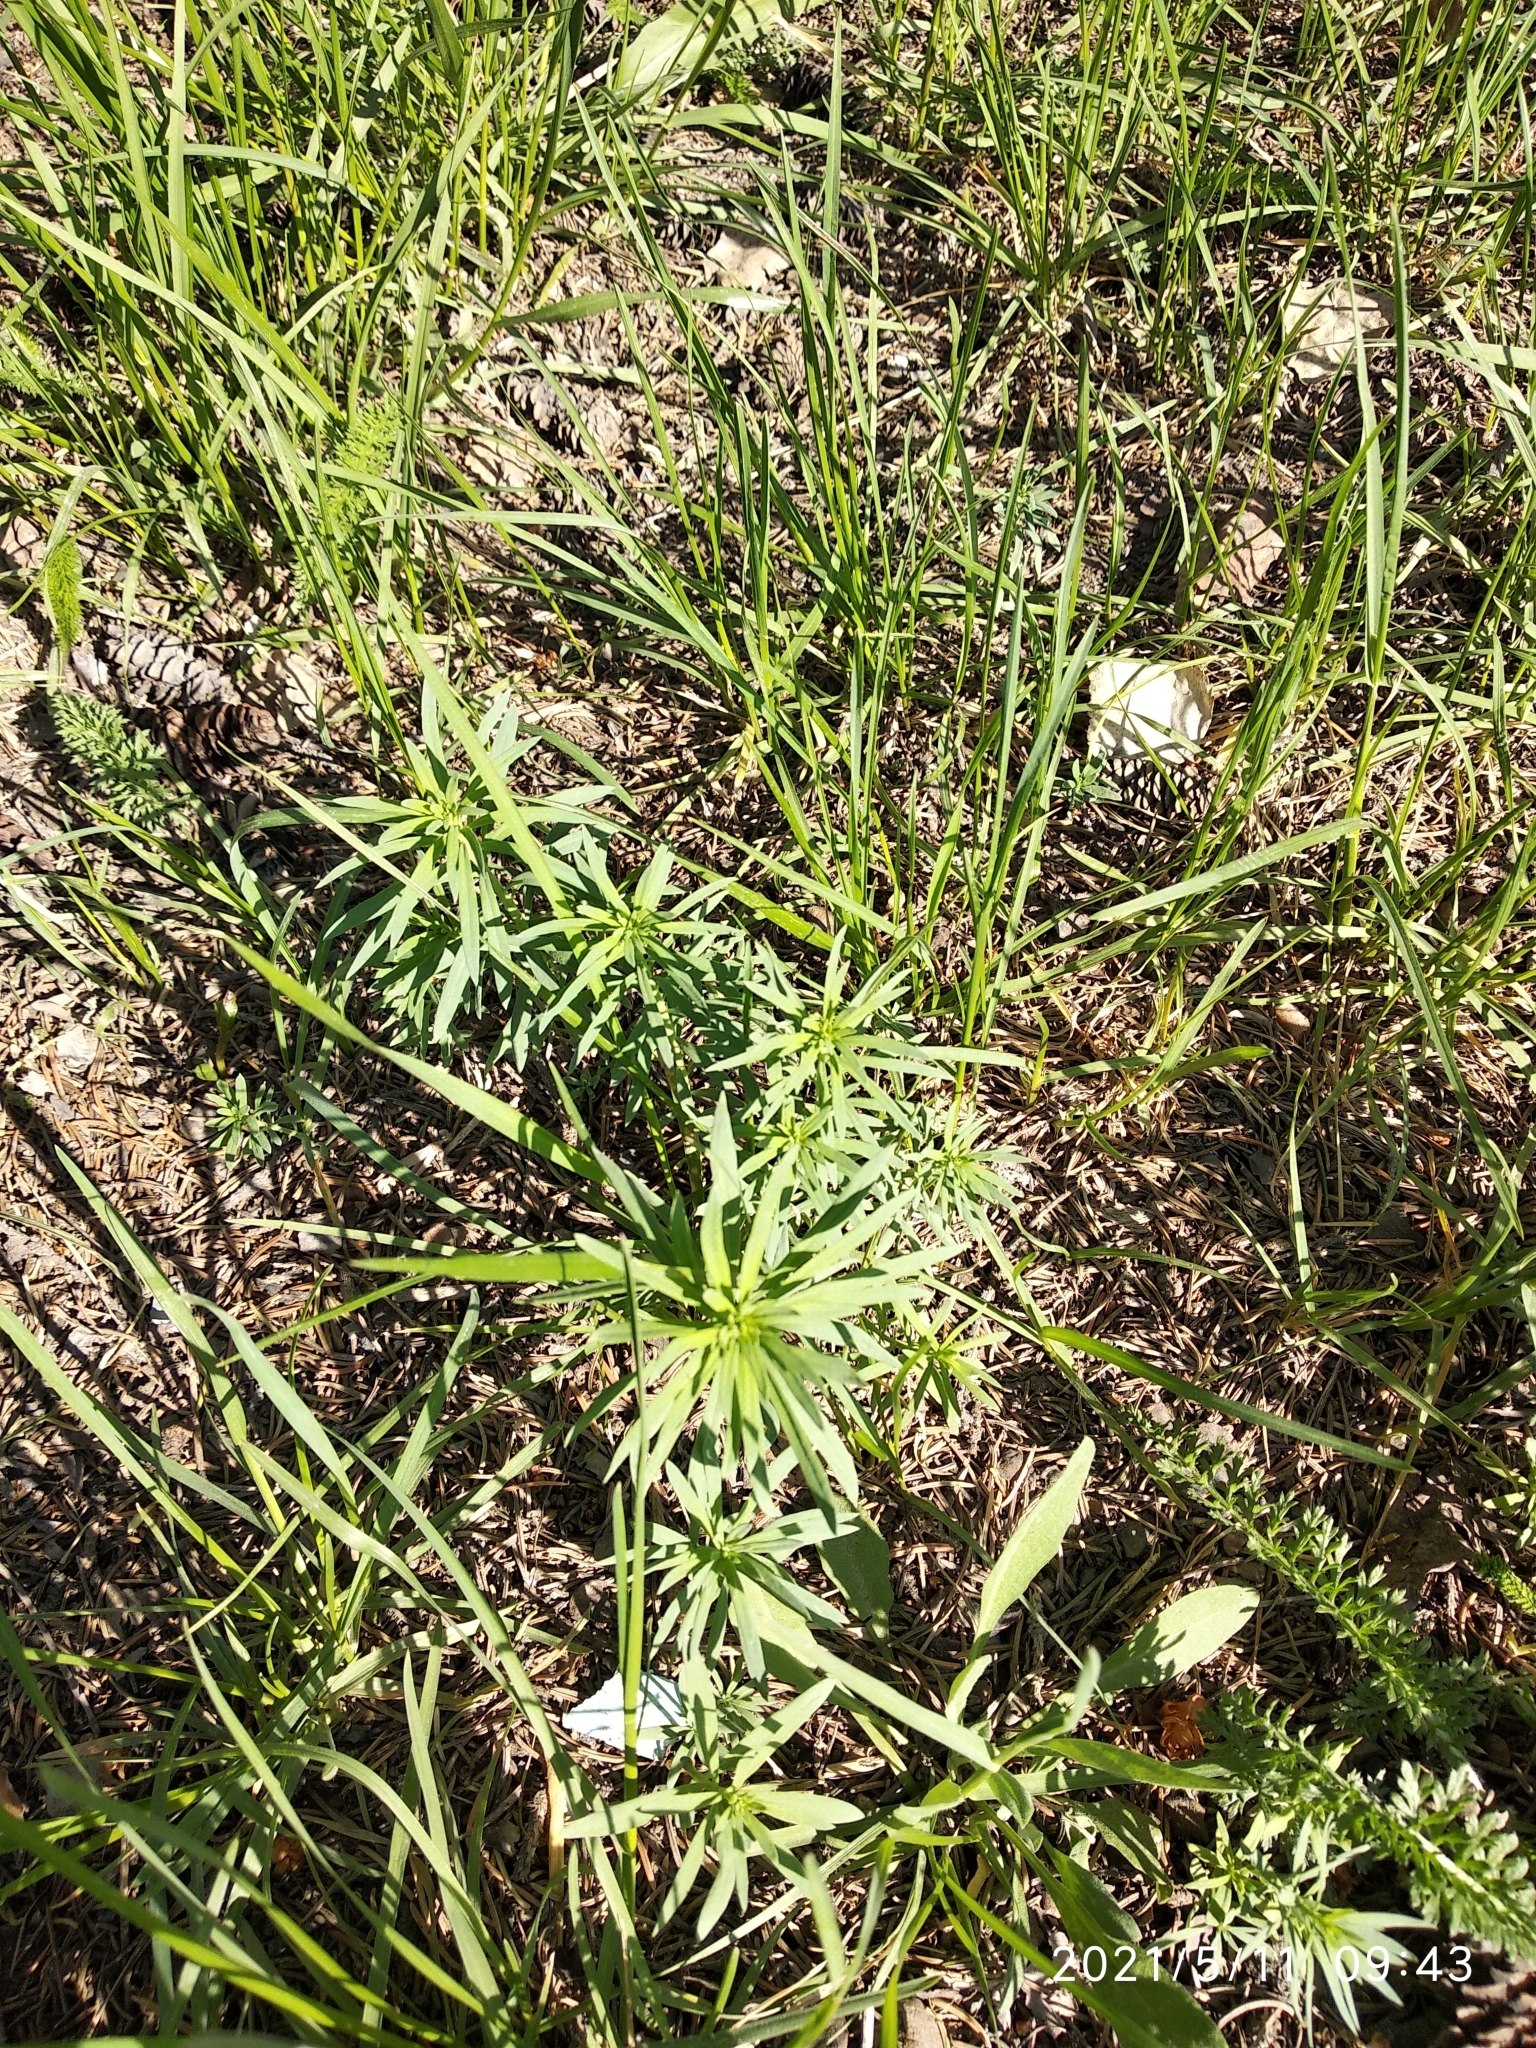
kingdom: Plantae
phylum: Tracheophyta
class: Magnoliopsida
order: Lamiales
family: Plantaginaceae
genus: Linaria
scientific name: Linaria vulgaris
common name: Butter and eggs
